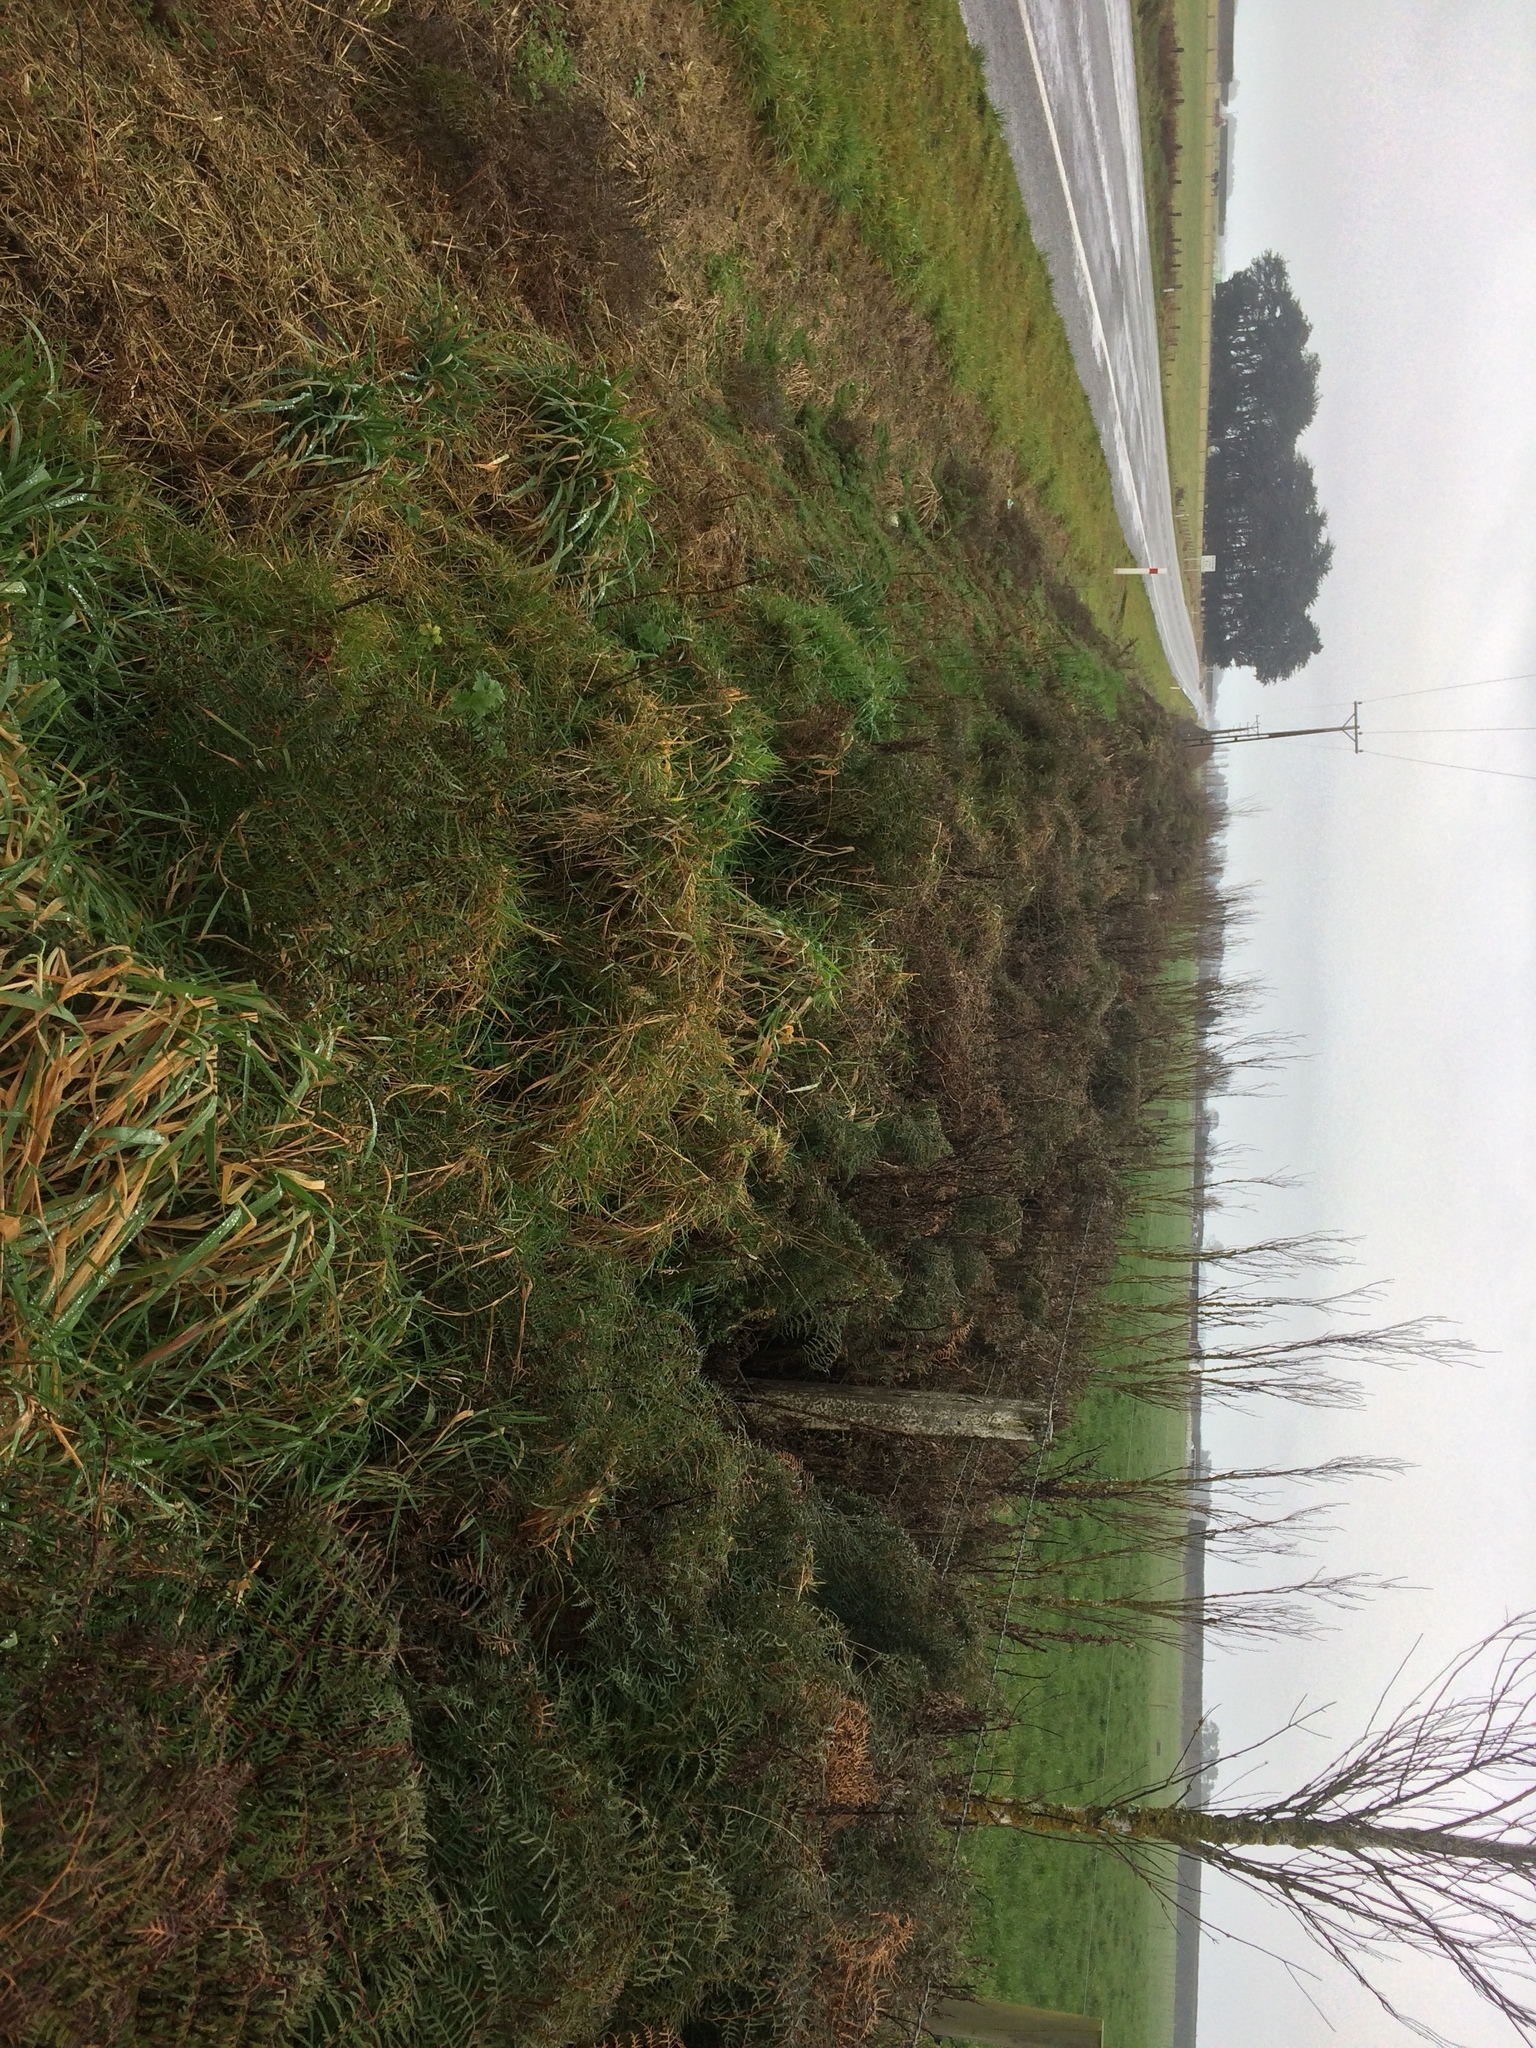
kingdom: Plantae
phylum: Tracheophyta
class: Polypodiopsida
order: Polypodiales
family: Dennstaedtiaceae
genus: Pteridium
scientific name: Pteridium esculentum
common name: Bracken fern
